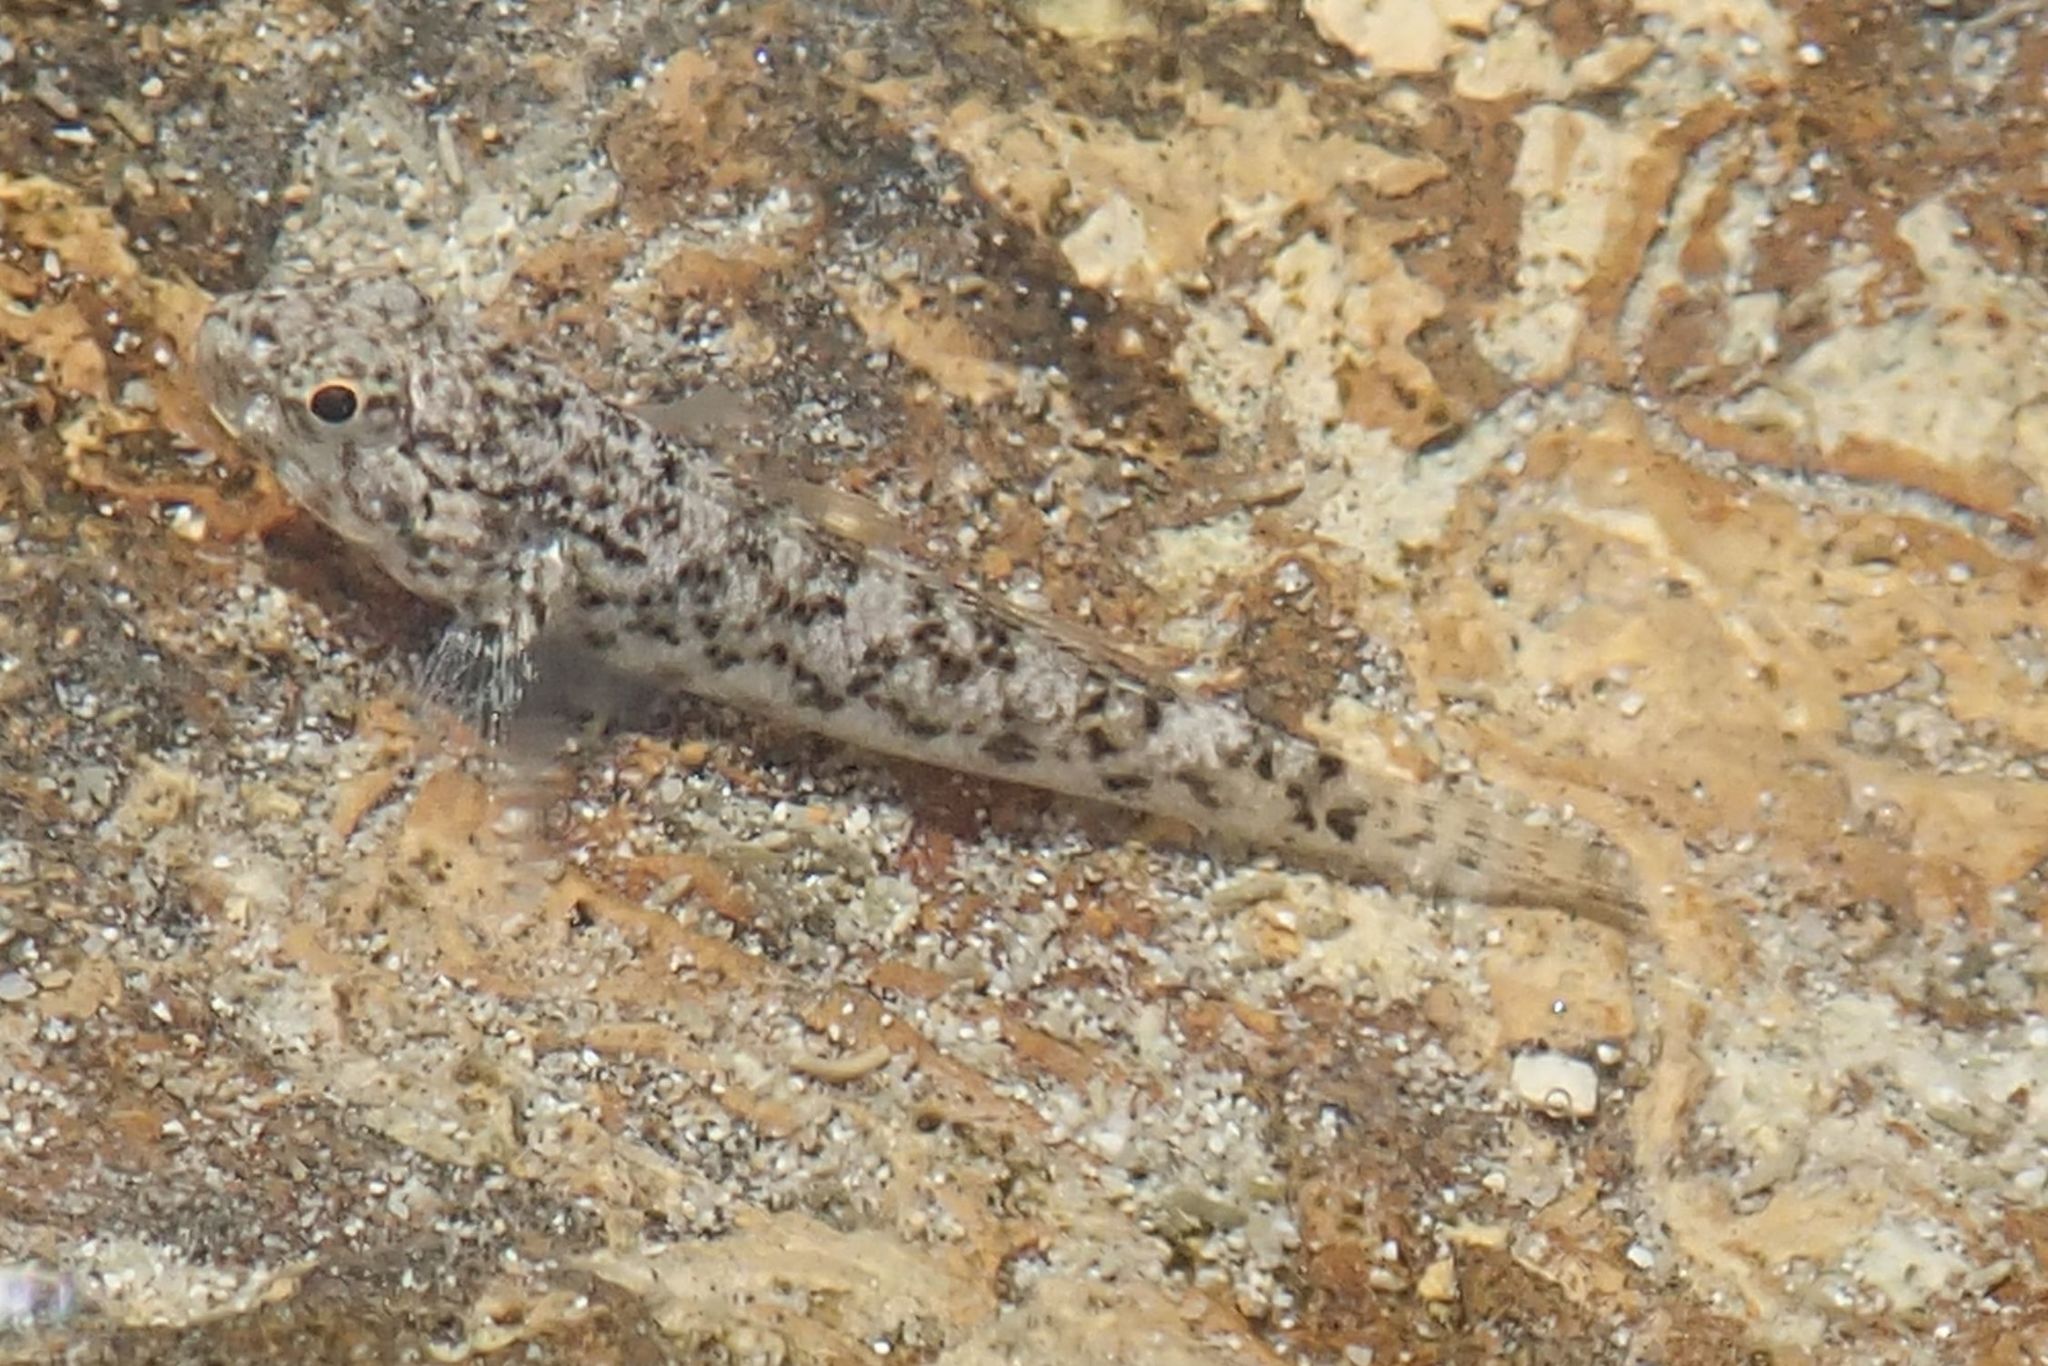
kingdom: Animalia
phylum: Chordata
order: Perciformes
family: Gobiidae
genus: Bathygobius
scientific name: Bathygobius coalitus
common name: Whitespotted goby
